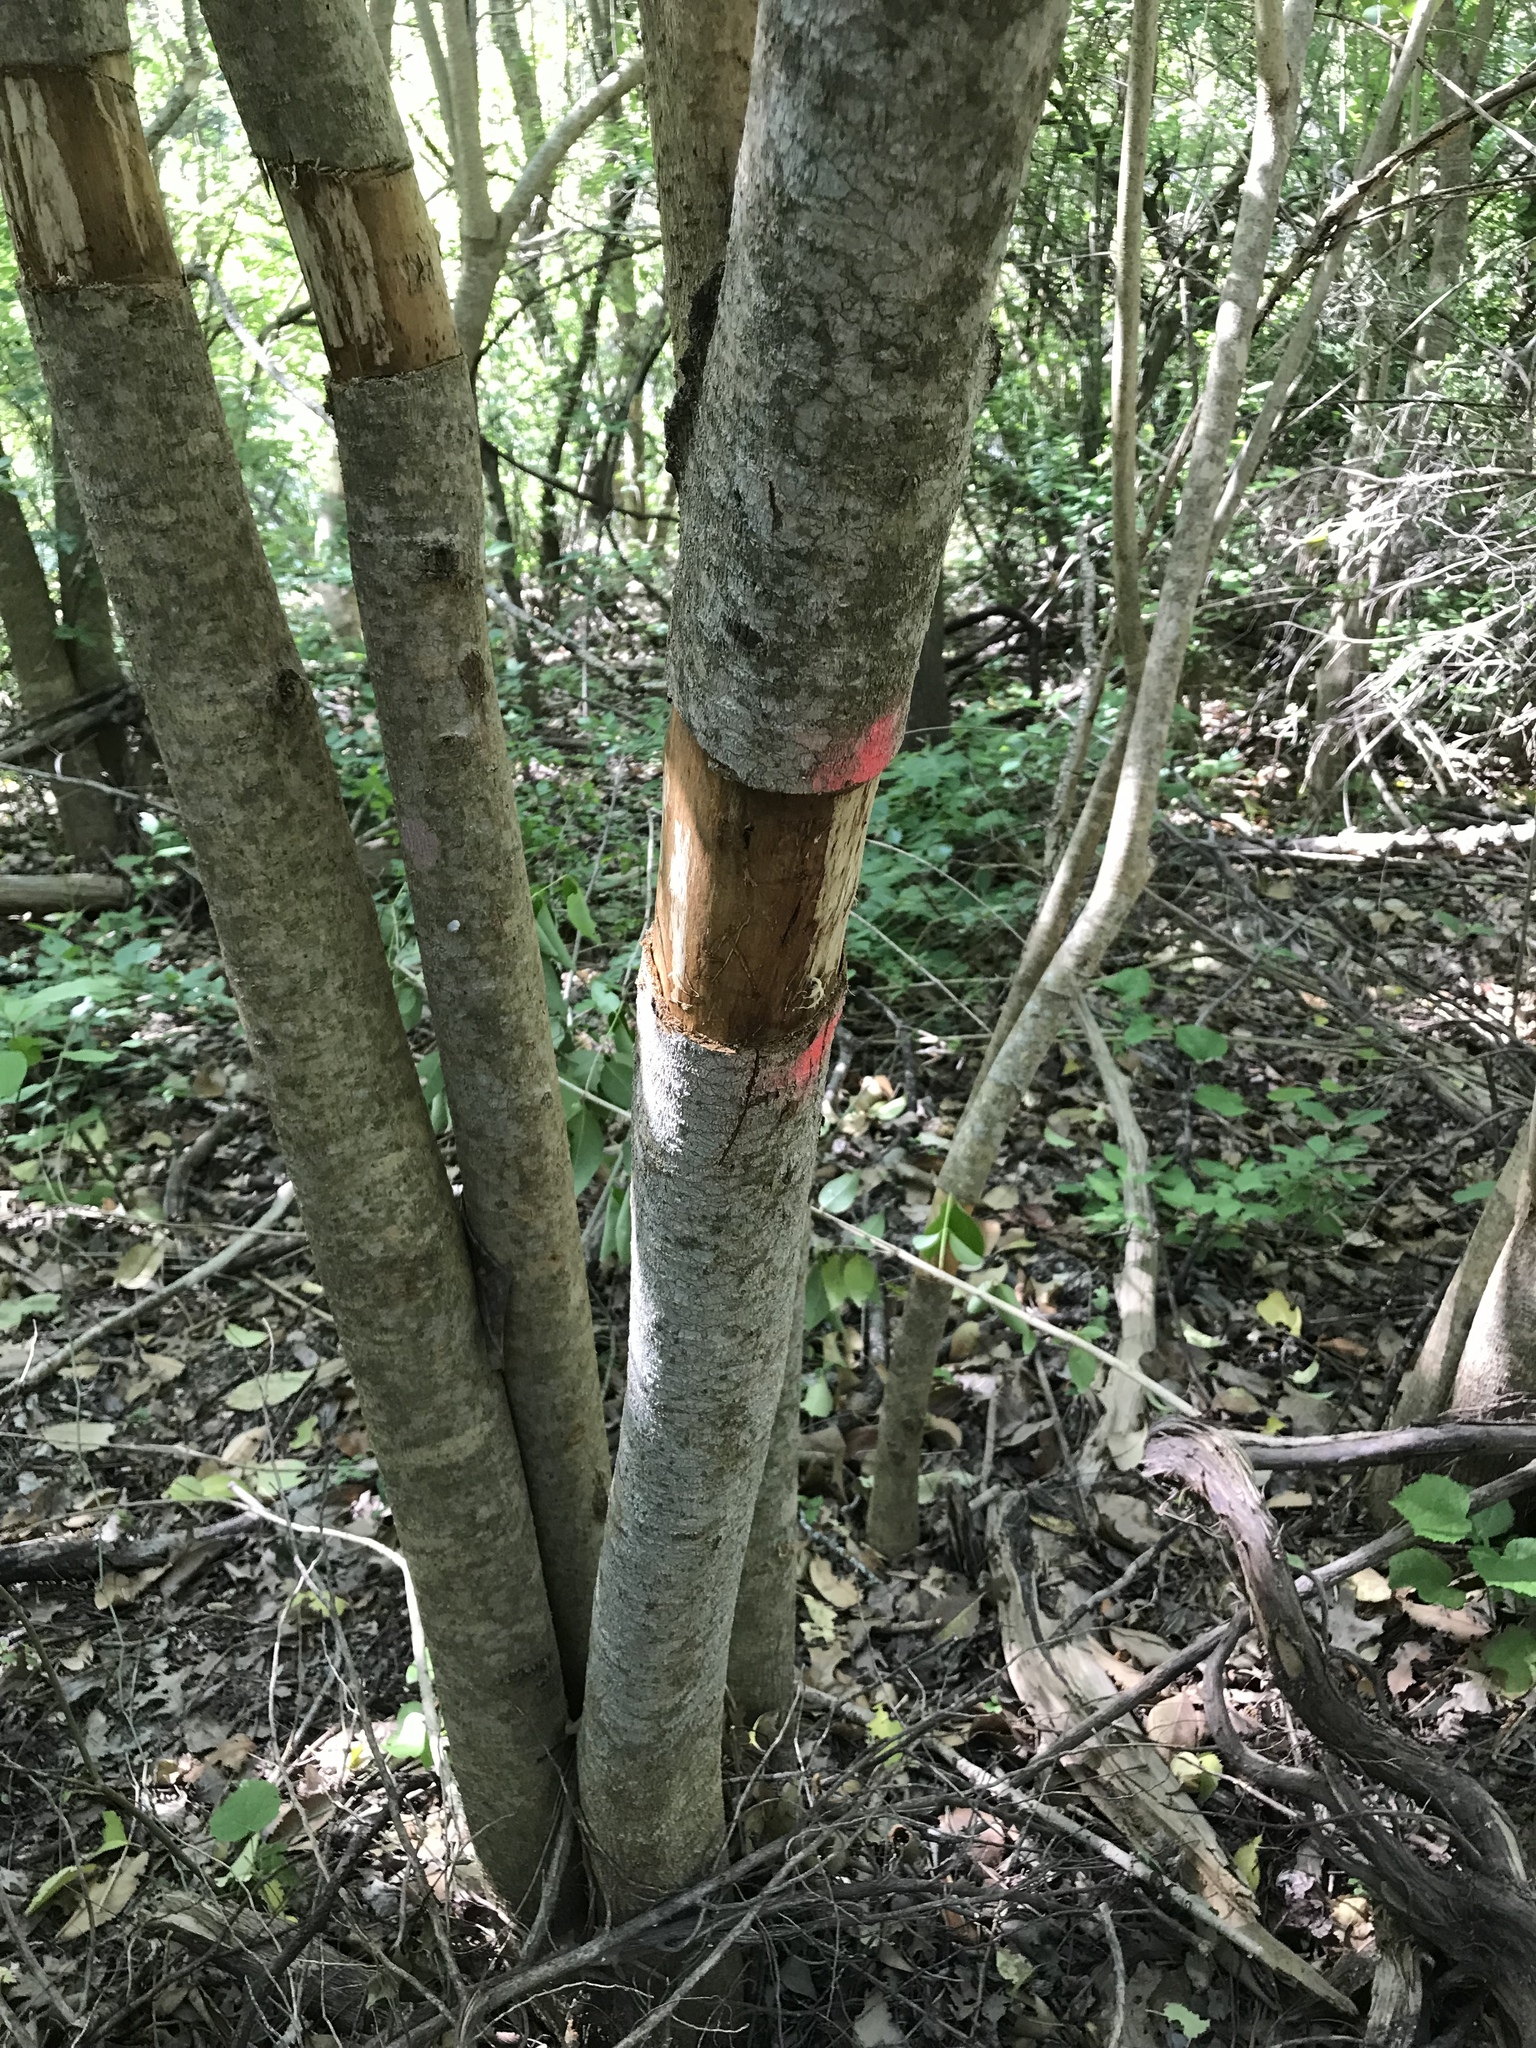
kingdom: Plantae
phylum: Tracheophyta
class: Magnoliopsida
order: Lamiales
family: Oleaceae
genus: Ligustrum
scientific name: Ligustrum lucidum
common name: Glossy privet
